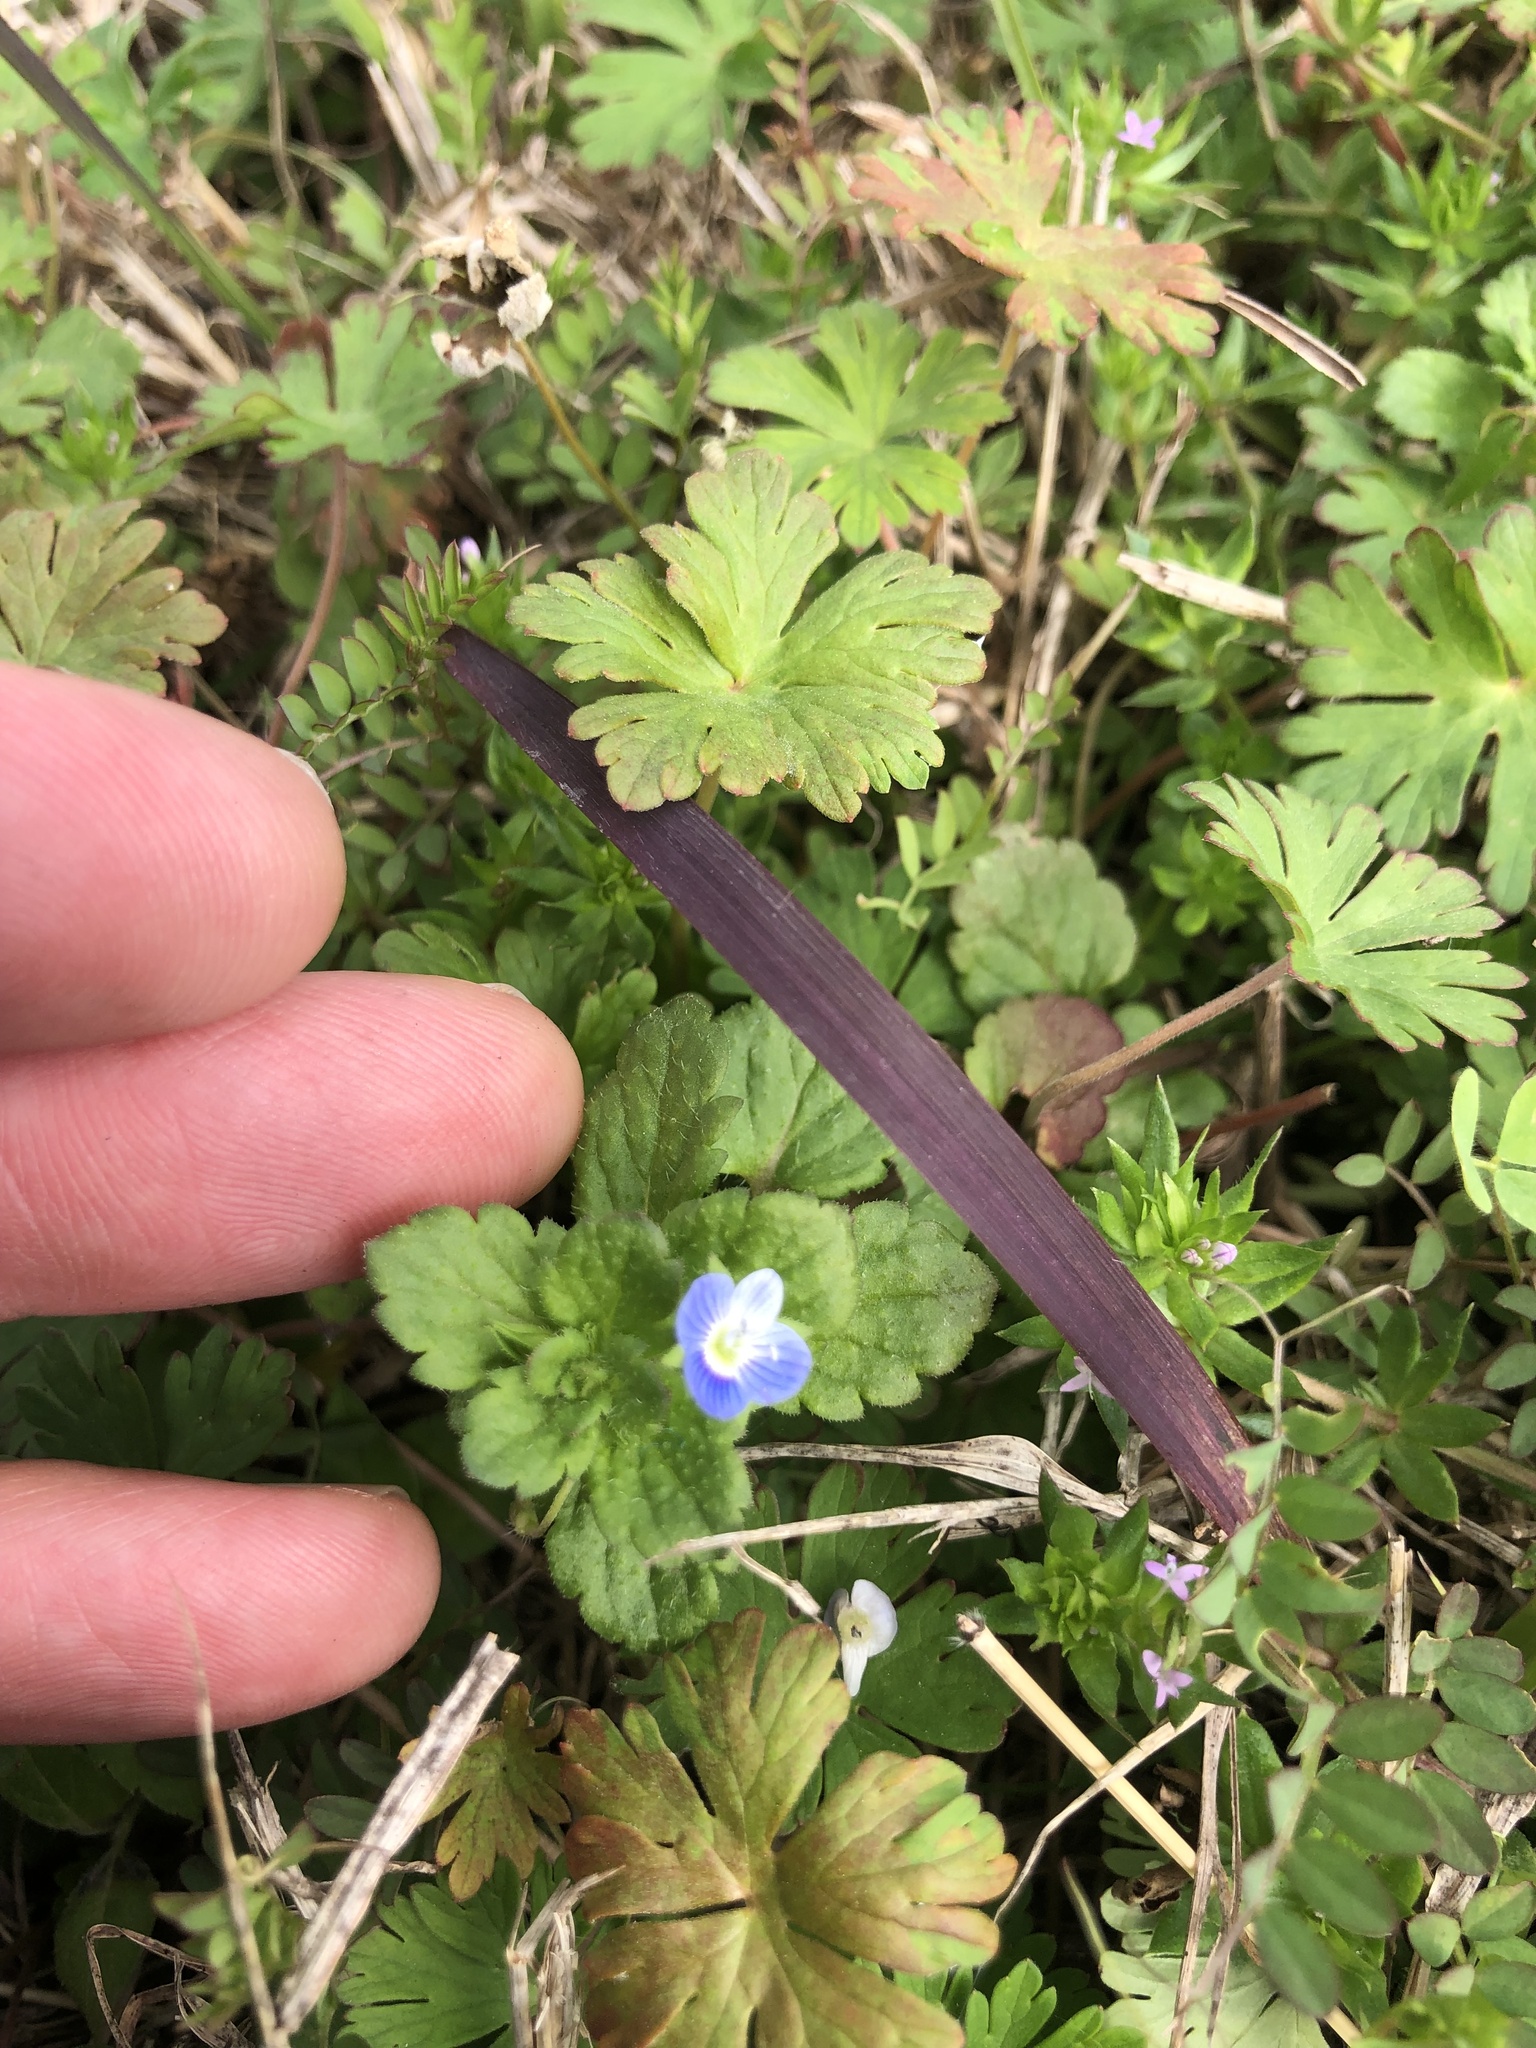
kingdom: Plantae
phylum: Tracheophyta
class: Magnoliopsida
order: Lamiales
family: Plantaginaceae
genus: Veronica
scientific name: Veronica persica
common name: Common field-speedwell
